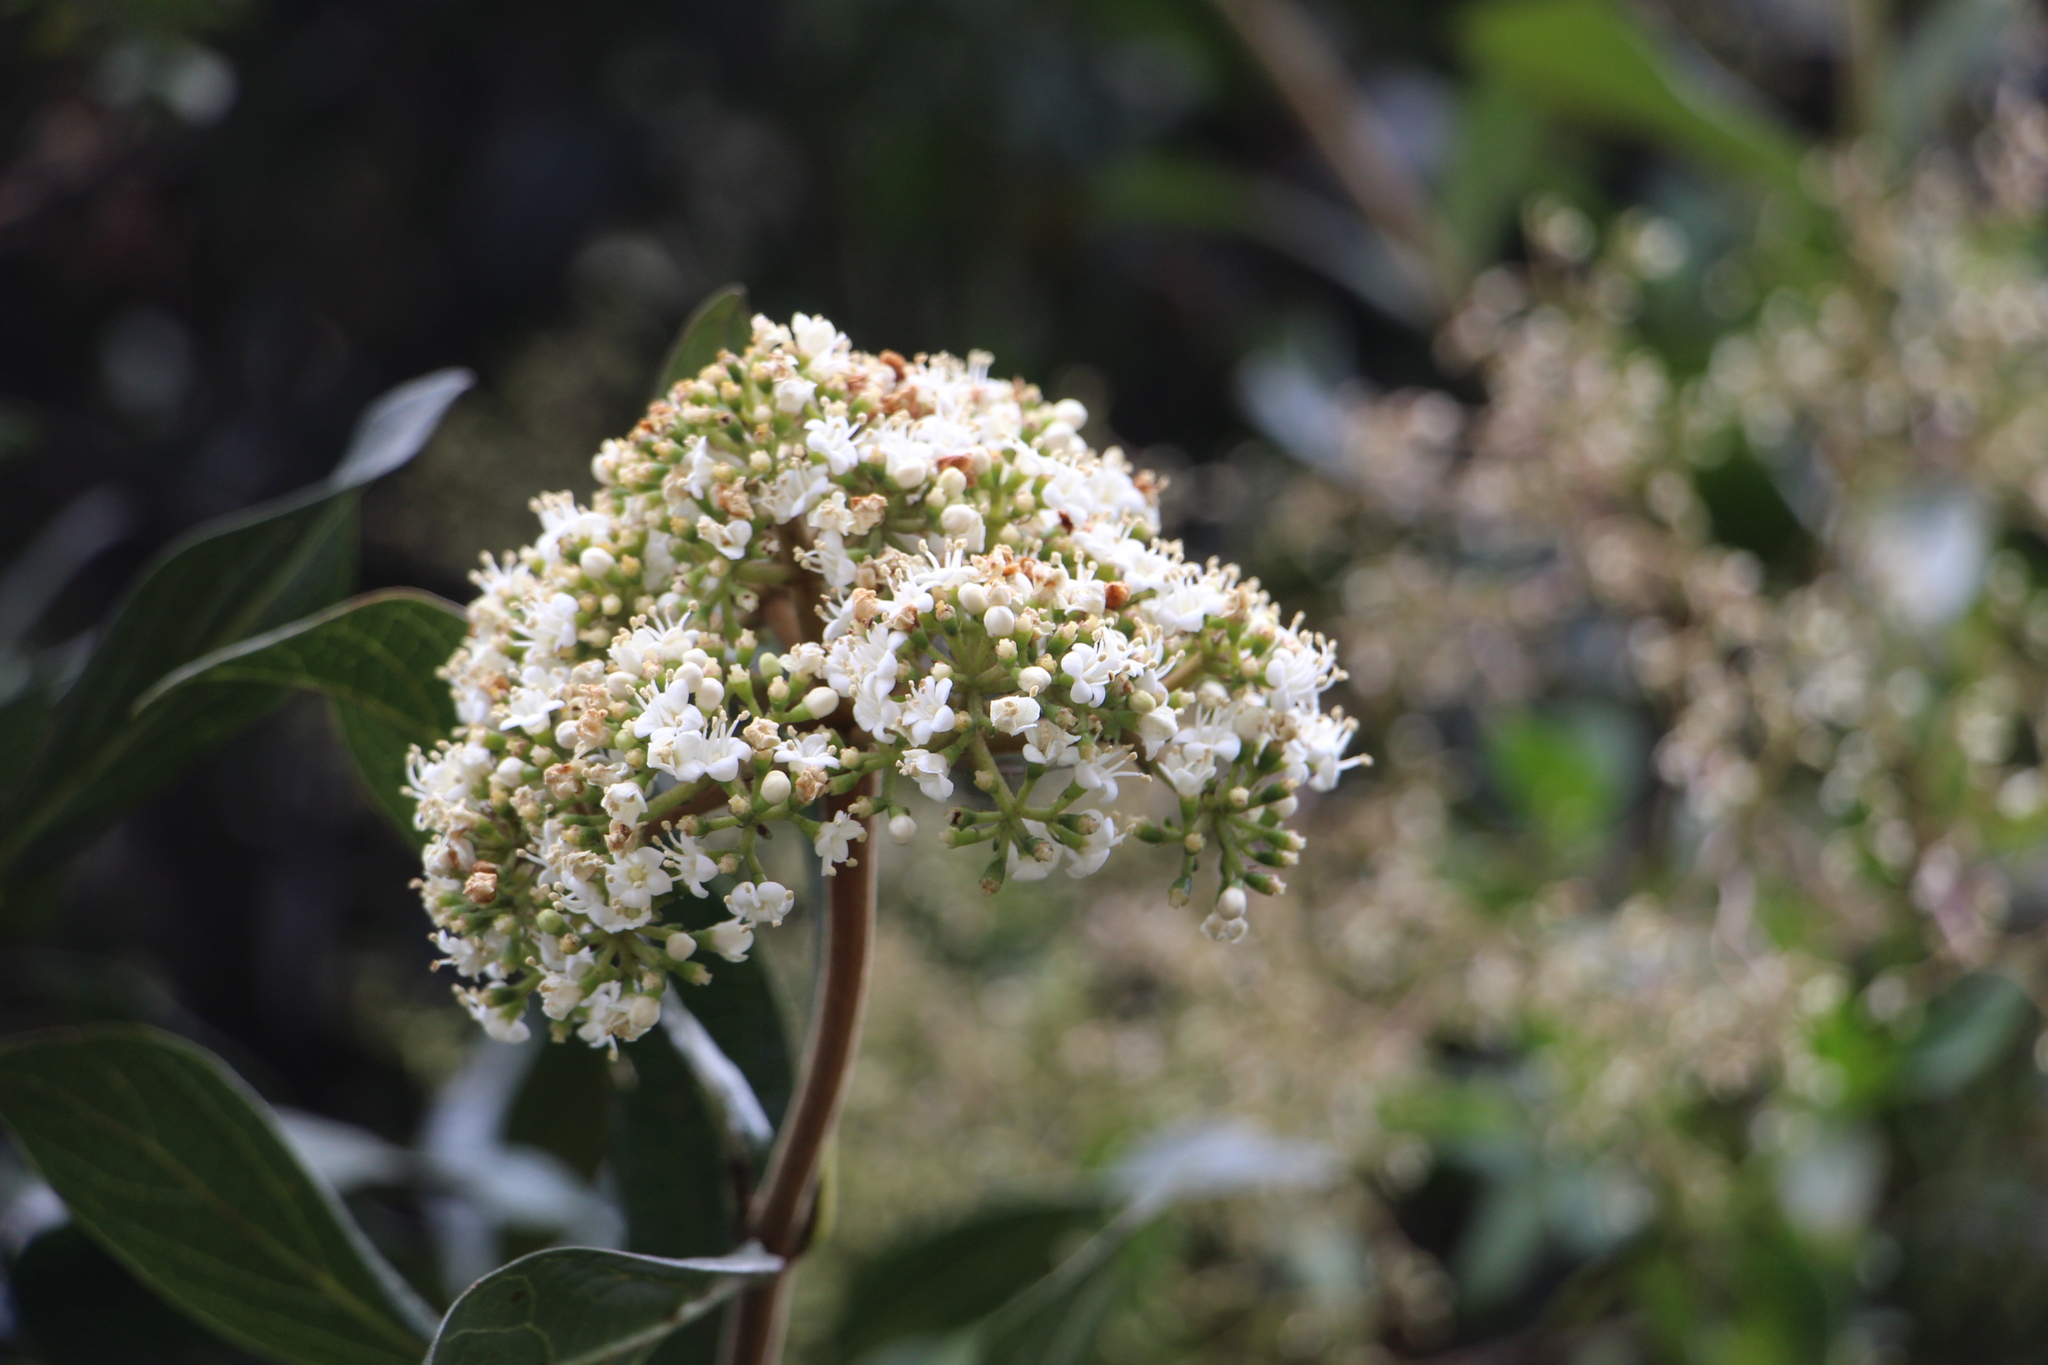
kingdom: Plantae
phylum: Tracheophyta
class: Magnoliopsida
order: Dipsacales
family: Viburnaceae
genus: Viburnum
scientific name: Viburnum triphyllum
